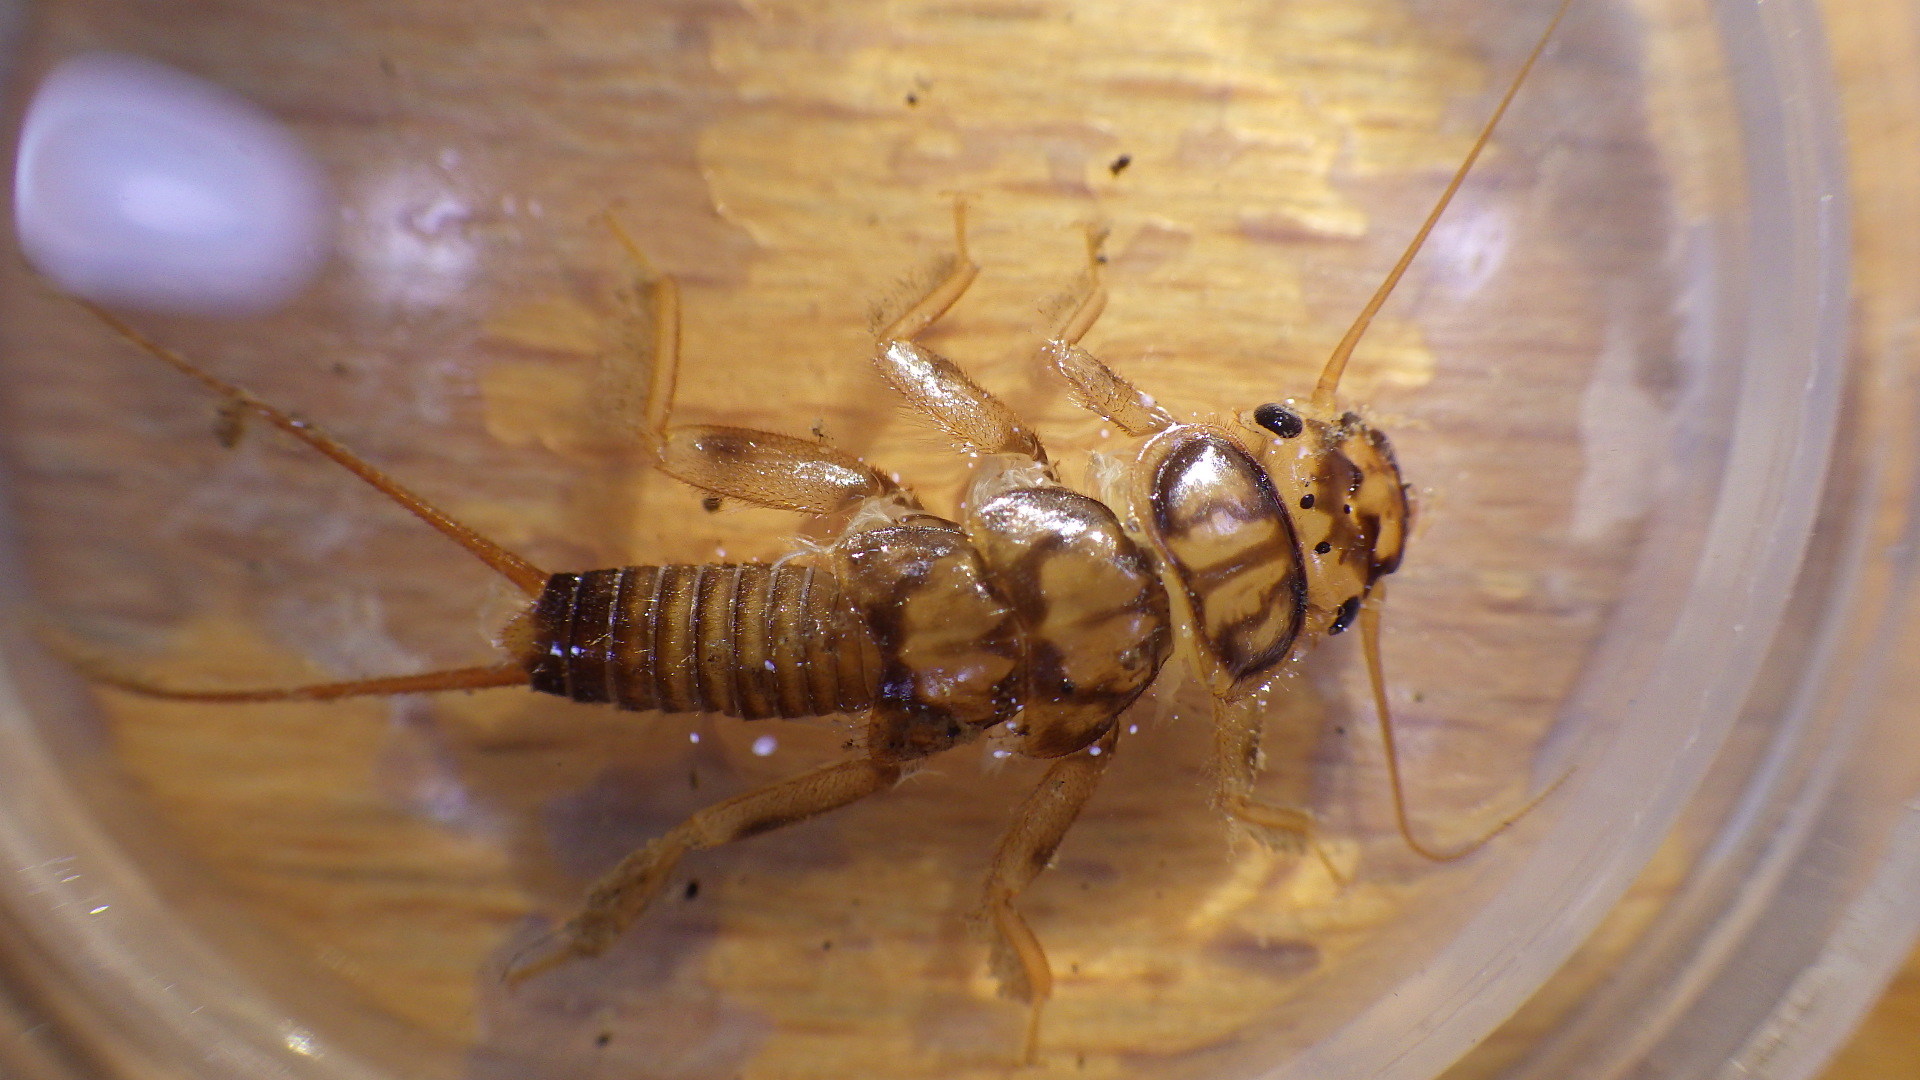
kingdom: Animalia
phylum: Arthropoda
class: Insecta
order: Plecoptera
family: Perlidae
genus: Eccoptura
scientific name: Eccoptura xanthenes
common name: Yellow stone
